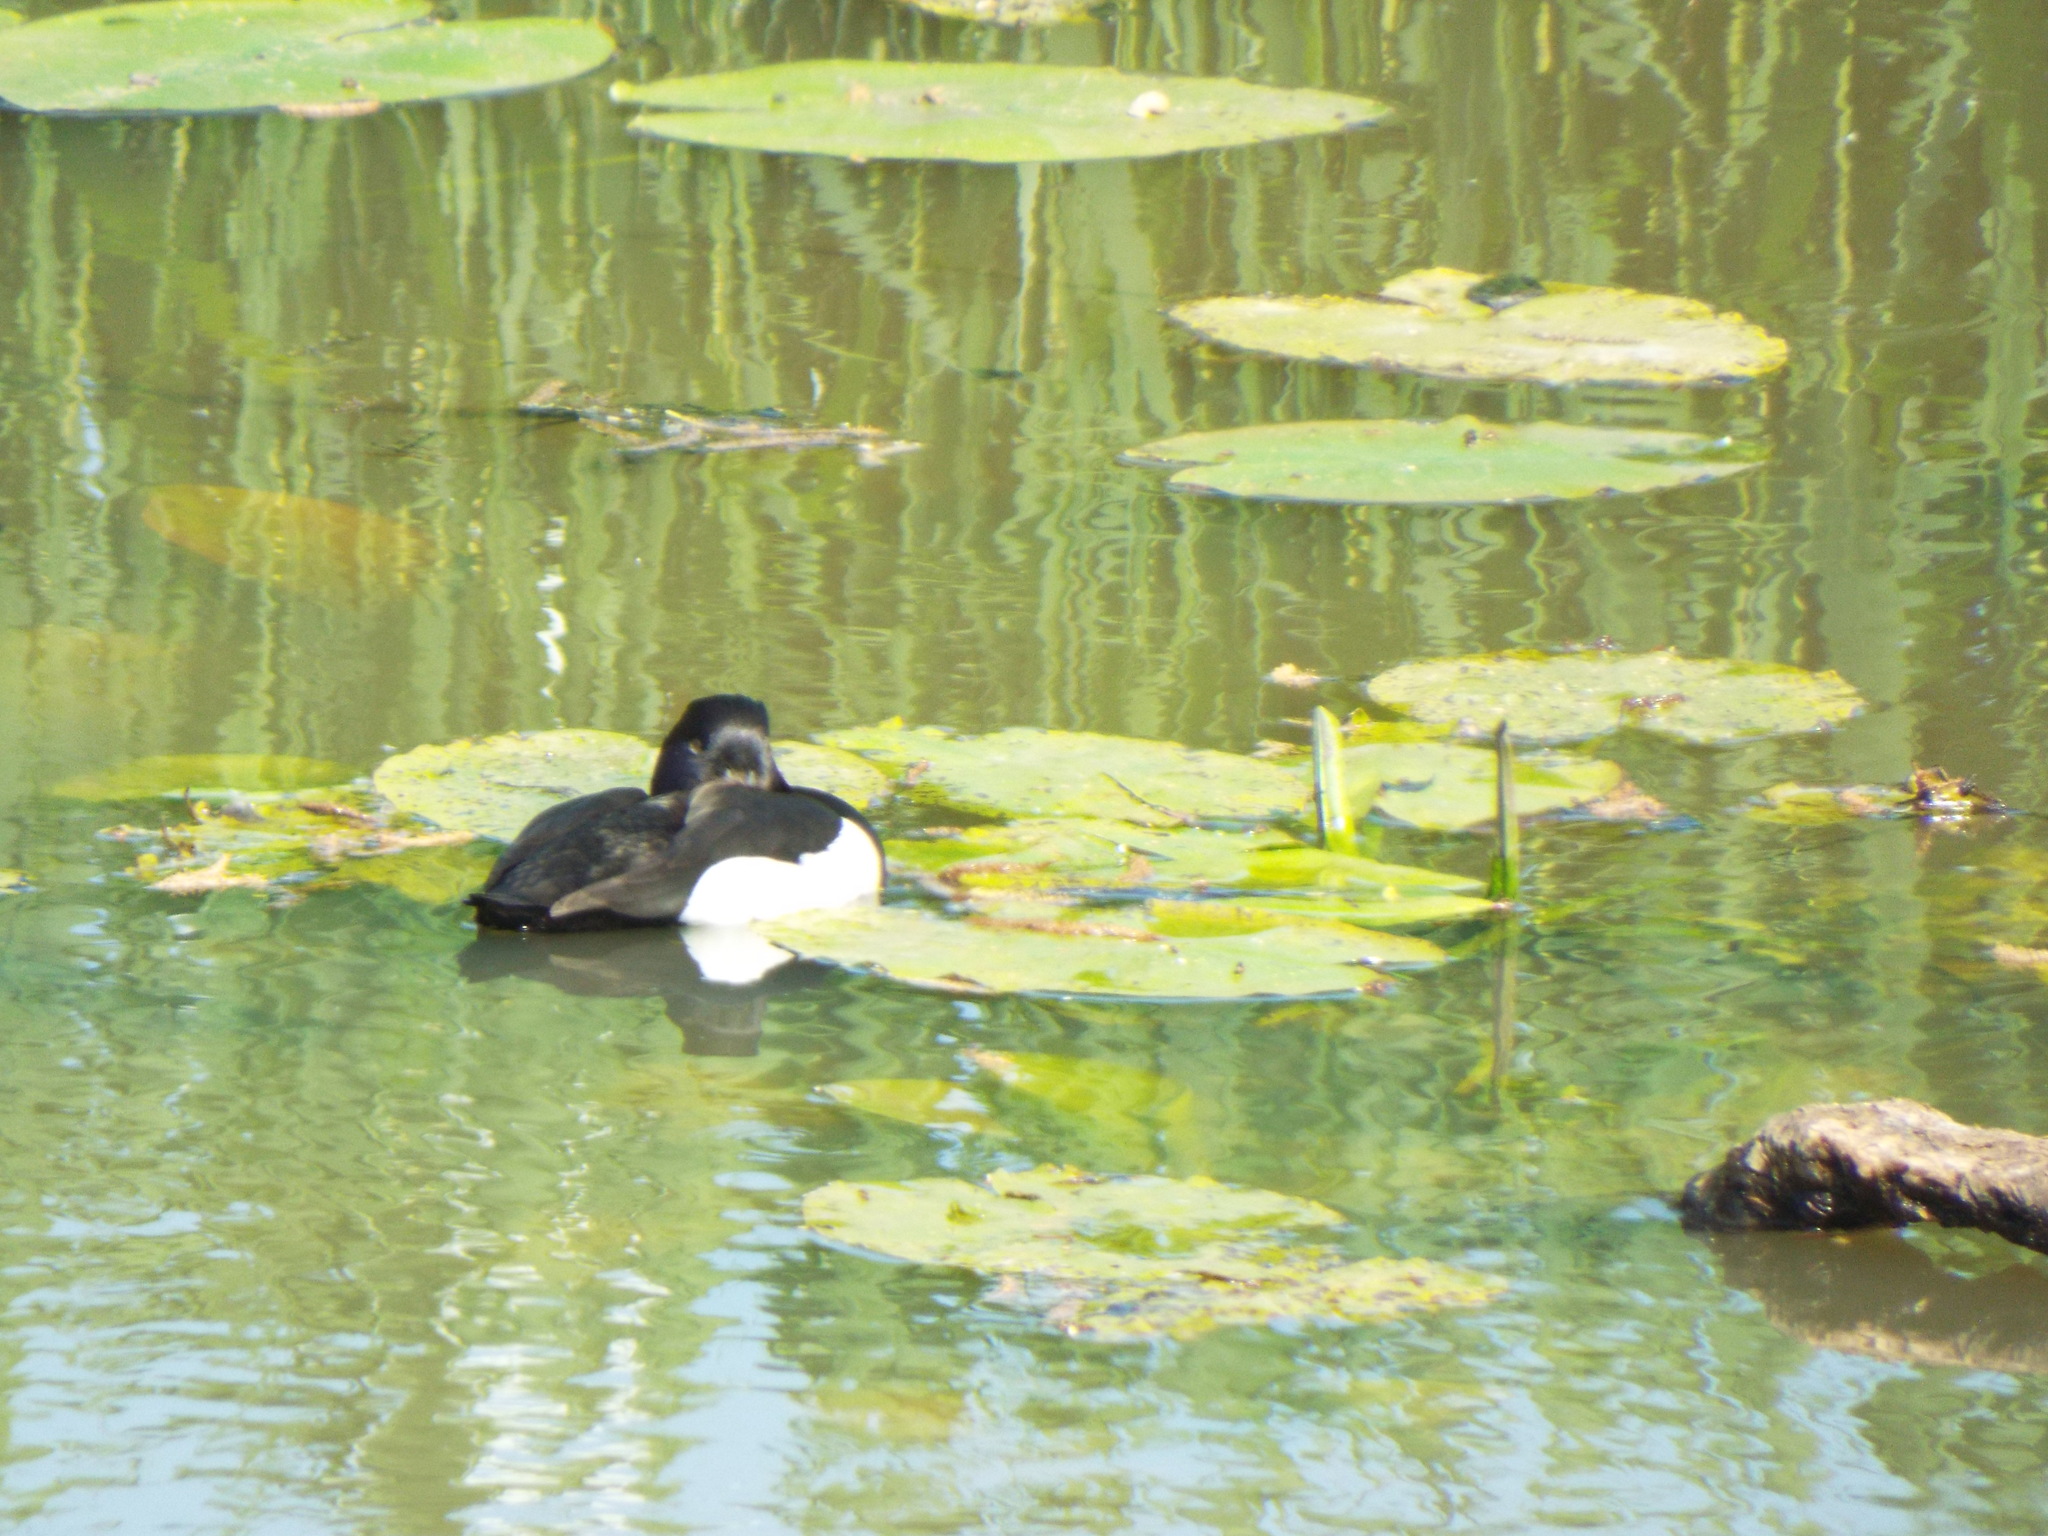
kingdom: Animalia
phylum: Chordata
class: Aves
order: Anseriformes
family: Anatidae
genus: Aythya
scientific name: Aythya fuligula
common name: Tufted duck
